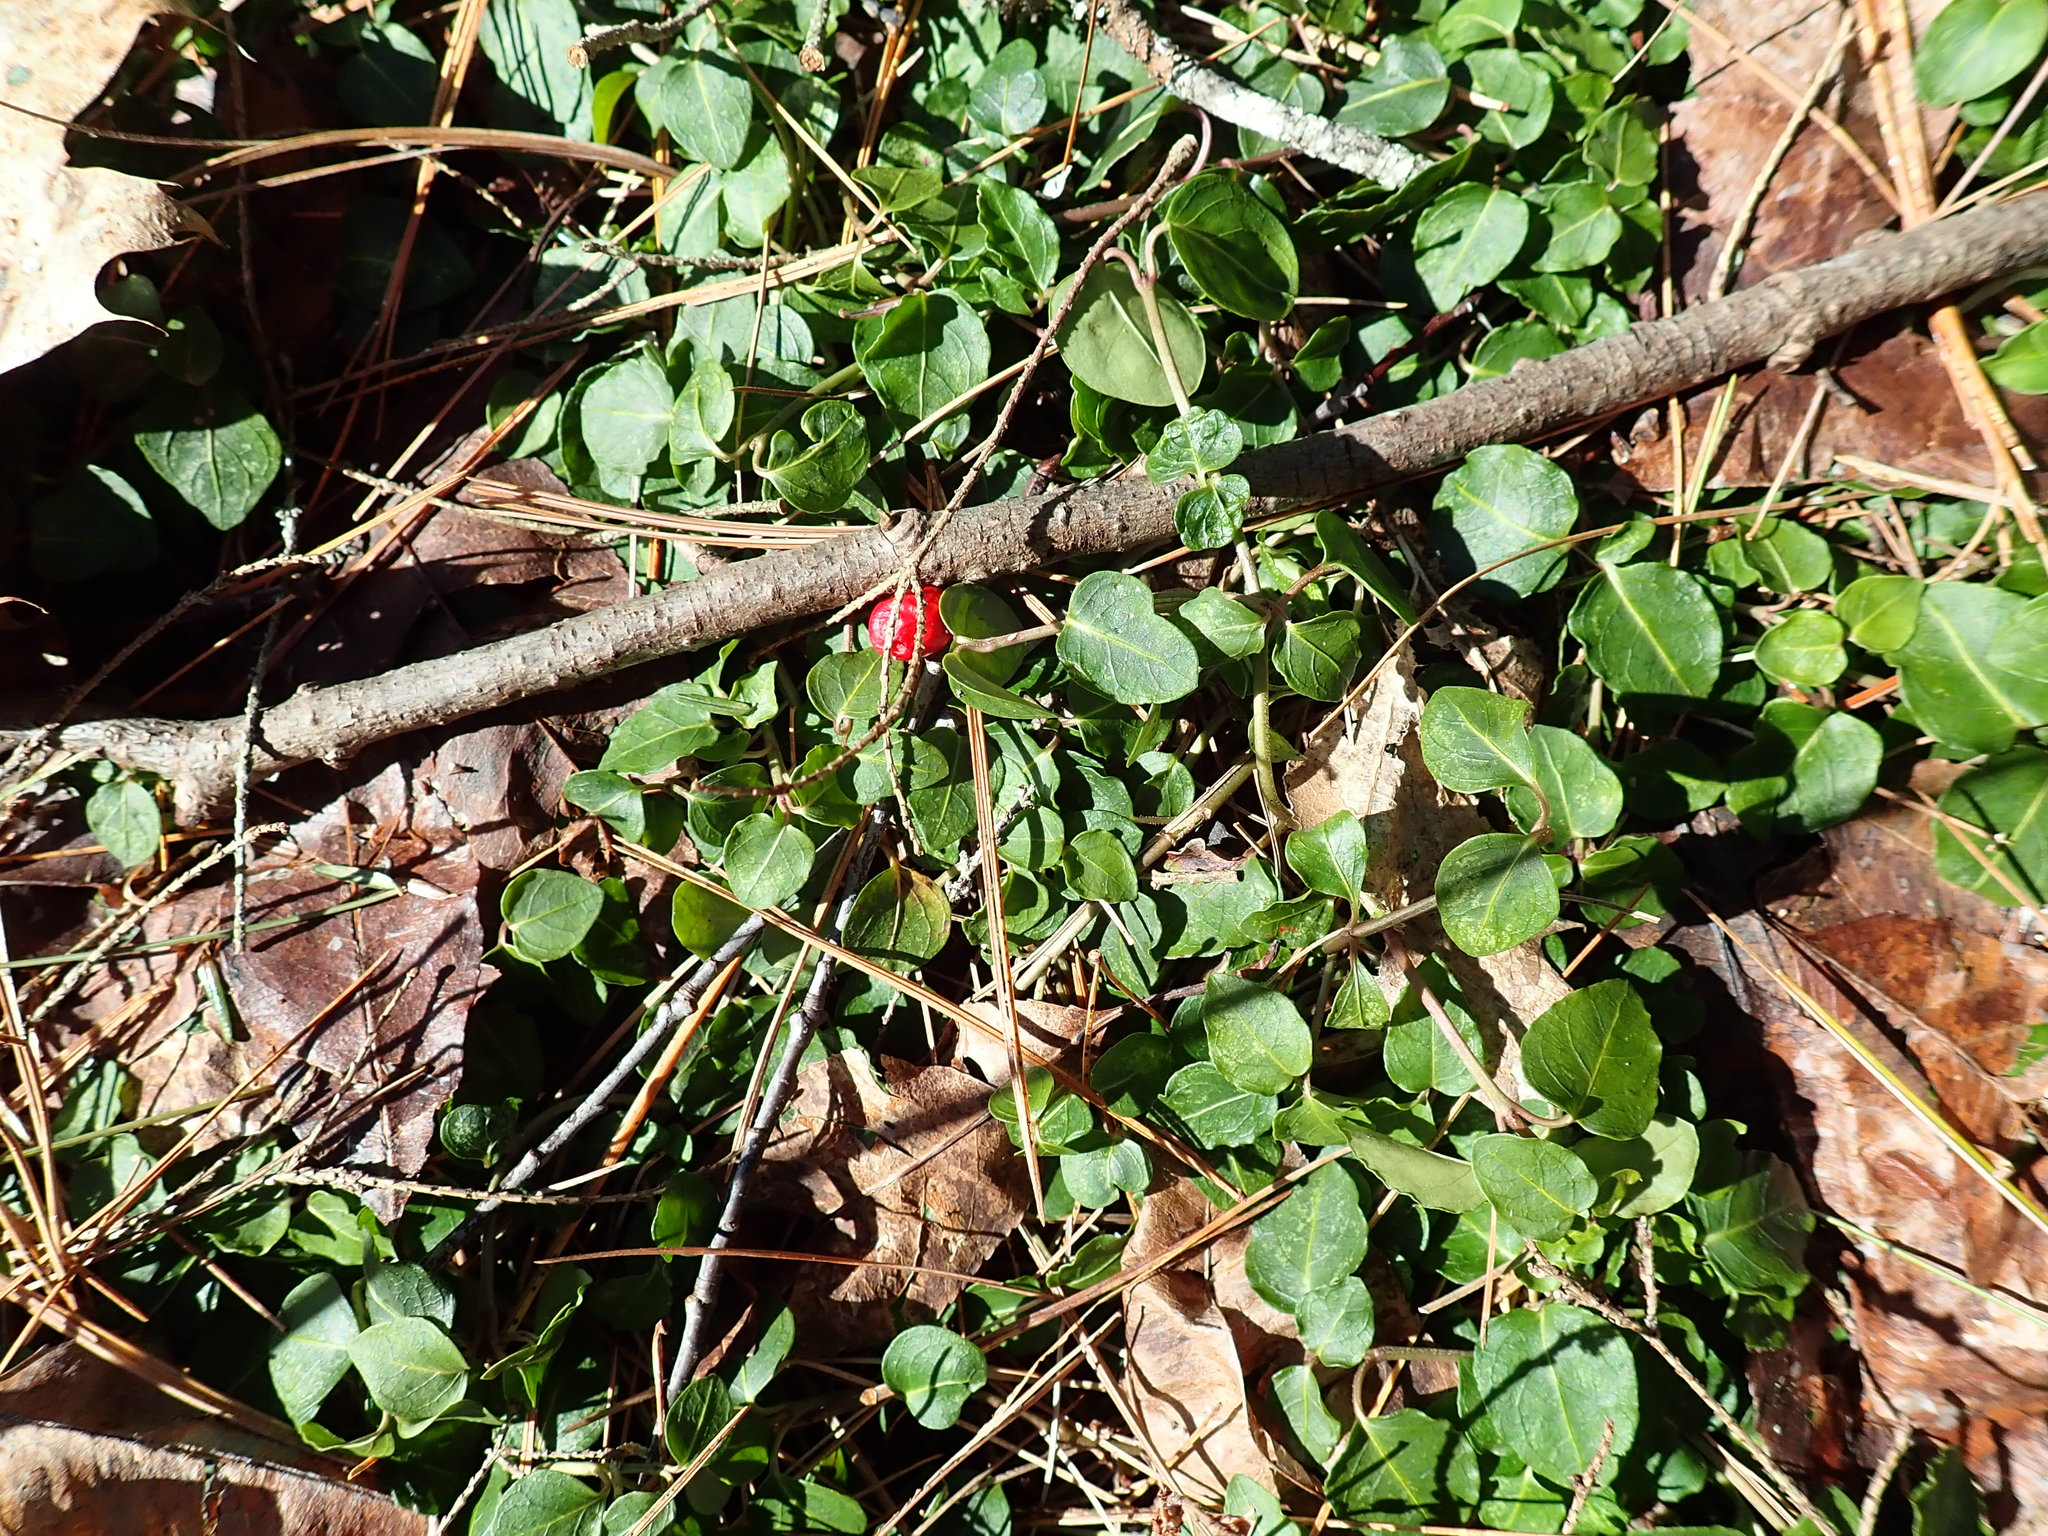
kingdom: Plantae
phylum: Tracheophyta
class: Magnoliopsida
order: Gentianales
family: Rubiaceae
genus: Mitchella
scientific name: Mitchella repens
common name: Partridge-berry
